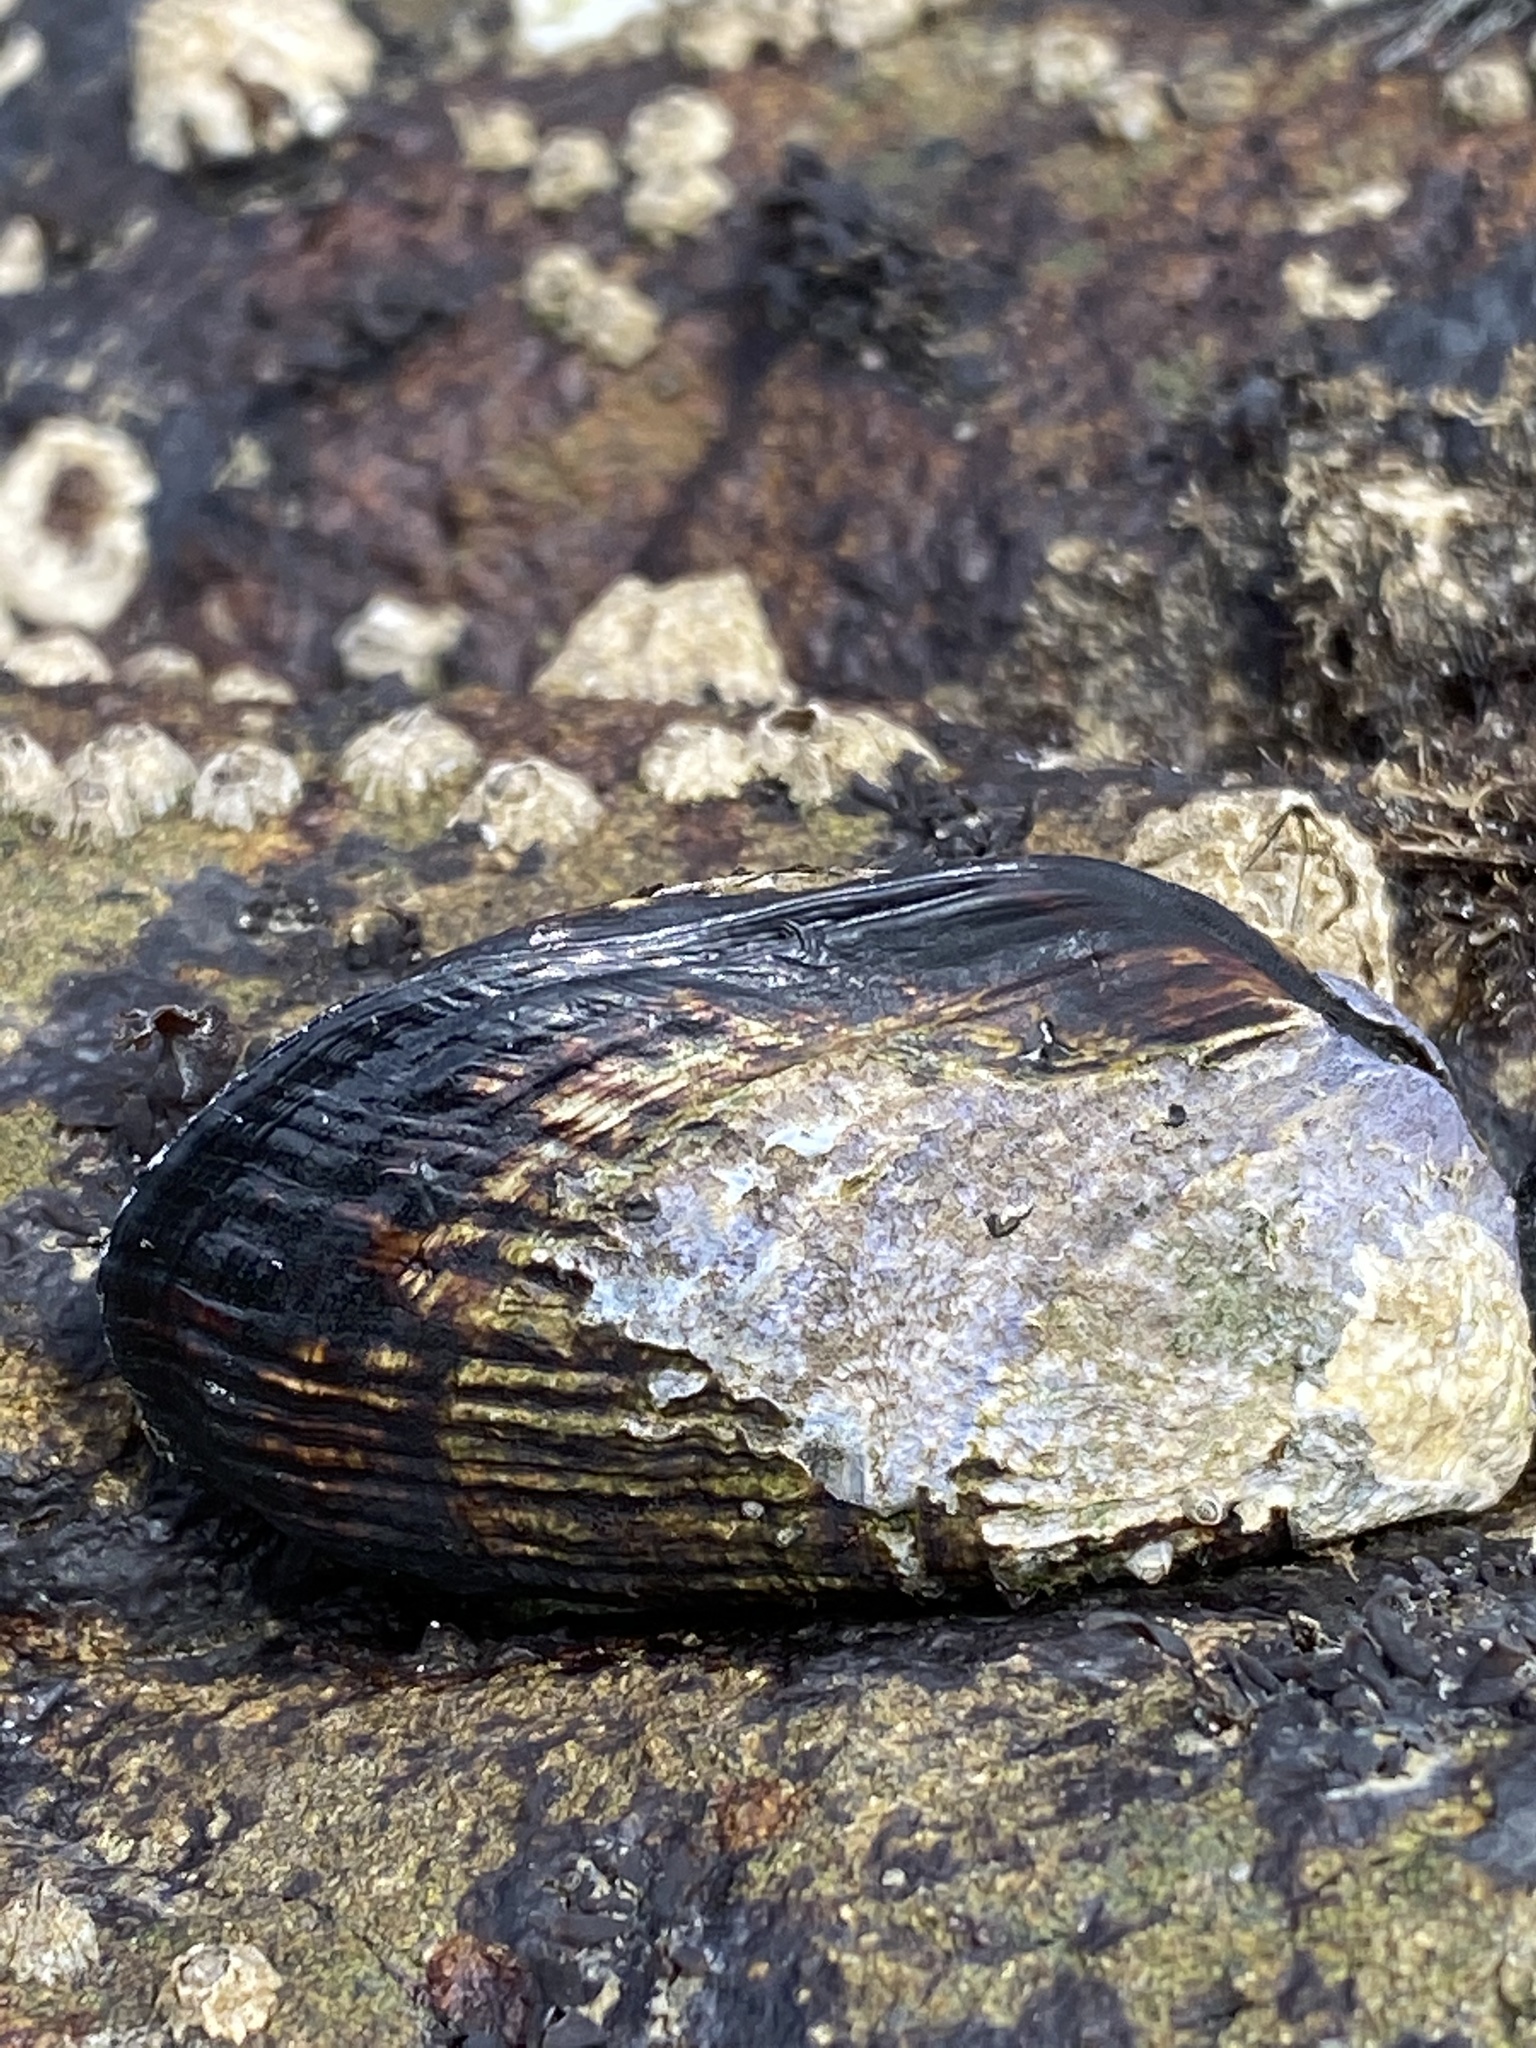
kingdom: Animalia
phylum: Mollusca
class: Bivalvia
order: Mytilida
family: Mytilidae
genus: Mytilus
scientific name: Mytilus californianus
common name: California mussel
